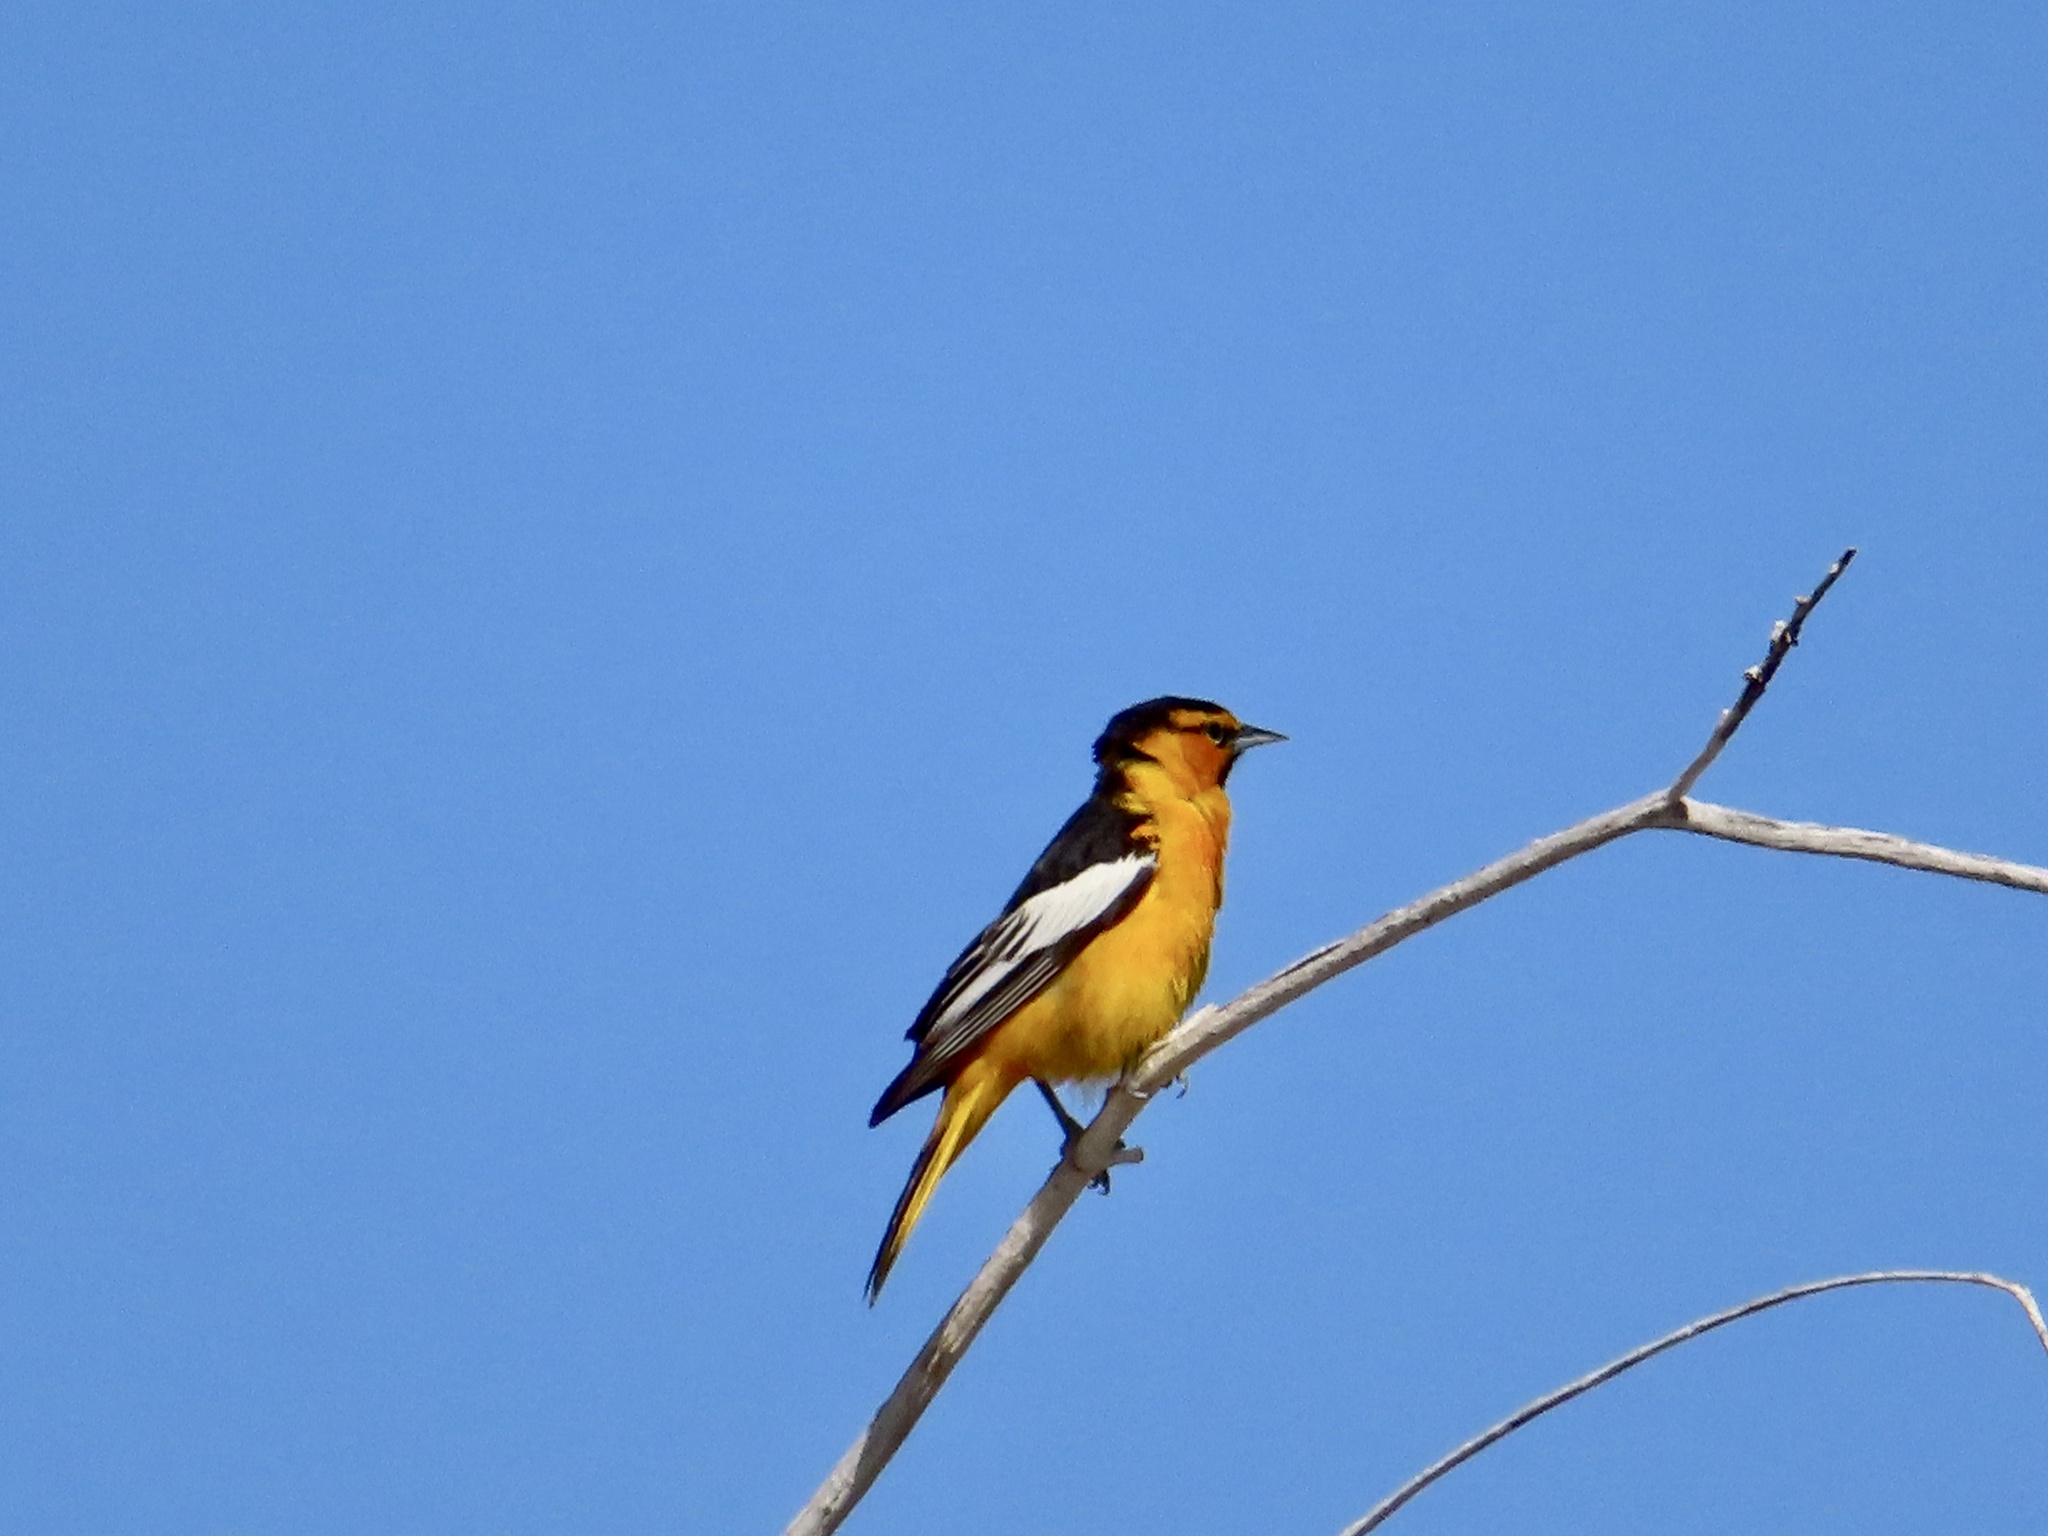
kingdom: Animalia
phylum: Chordata
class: Aves
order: Passeriformes
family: Icteridae
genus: Icterus
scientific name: Icterus bullockii
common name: Bullock's oriole
